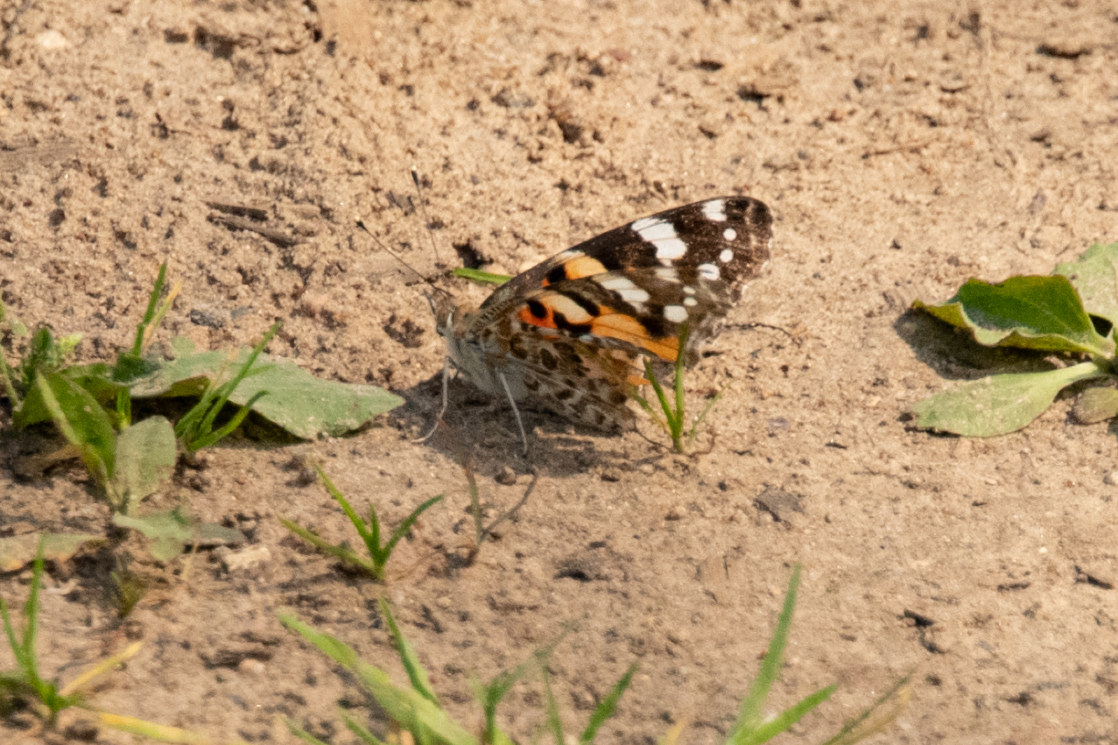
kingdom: Animalia
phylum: Arthropoda
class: Insecta
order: Lepidoptera
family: Nymphalidae
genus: Vanessa
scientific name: Vanessa cardui
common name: Painted lady
